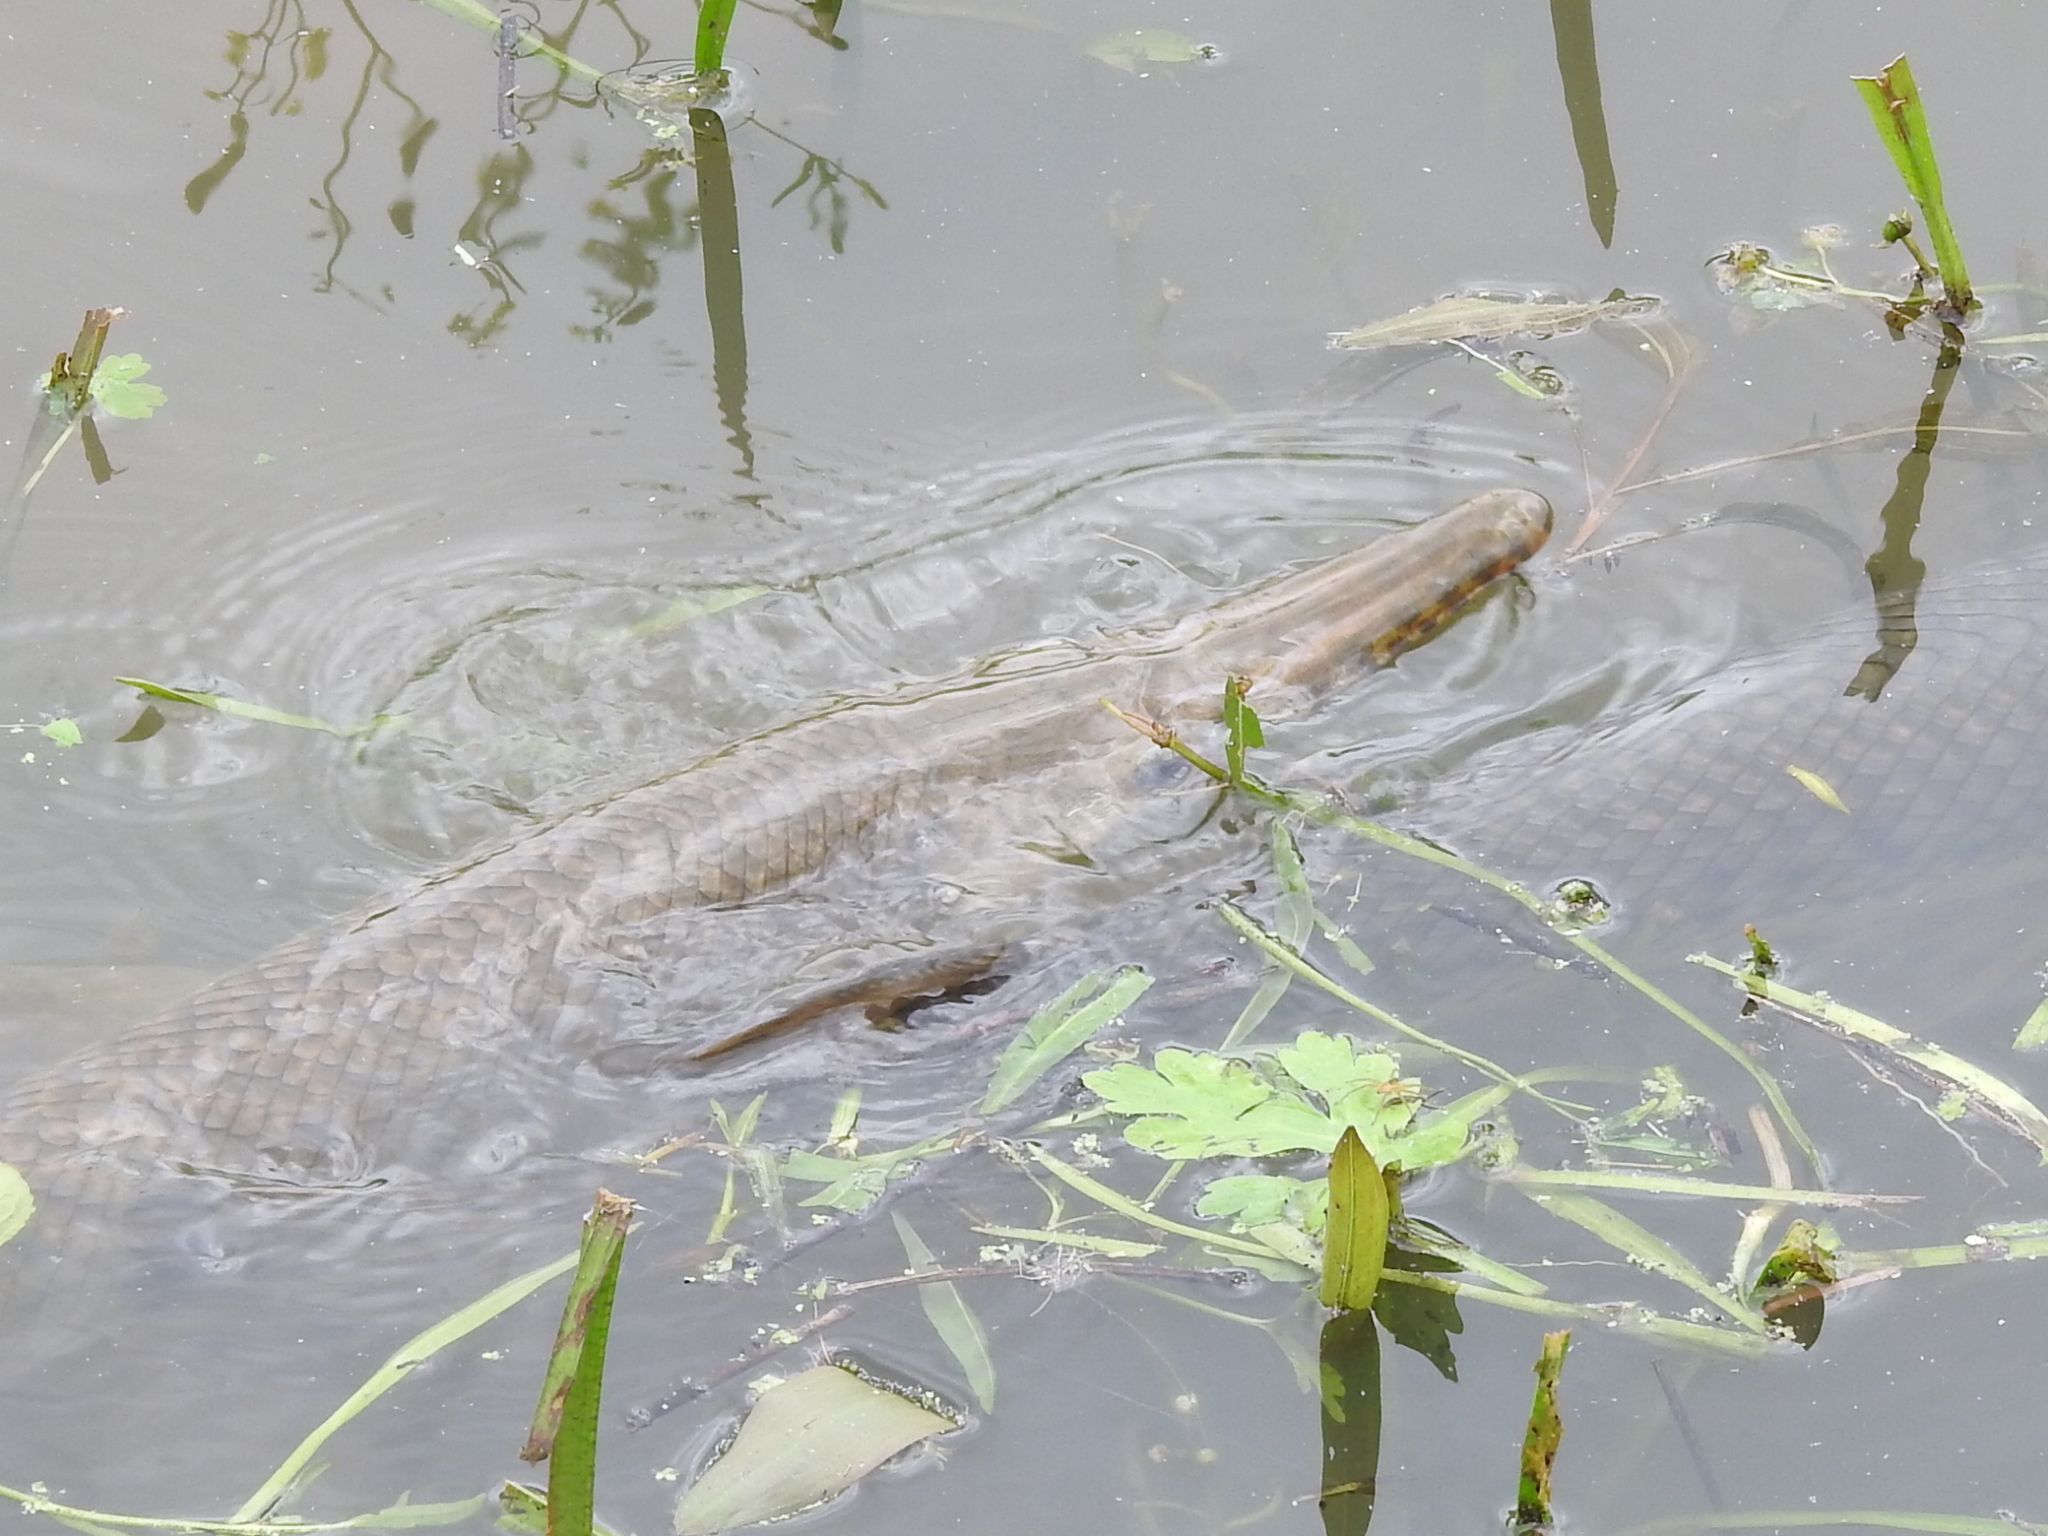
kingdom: Animalia
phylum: Chordata
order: Lepisosteiformes
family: Lepisosteidae
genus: Lepisosteus
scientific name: Lepisosteus oculatus
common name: Spotted gar
